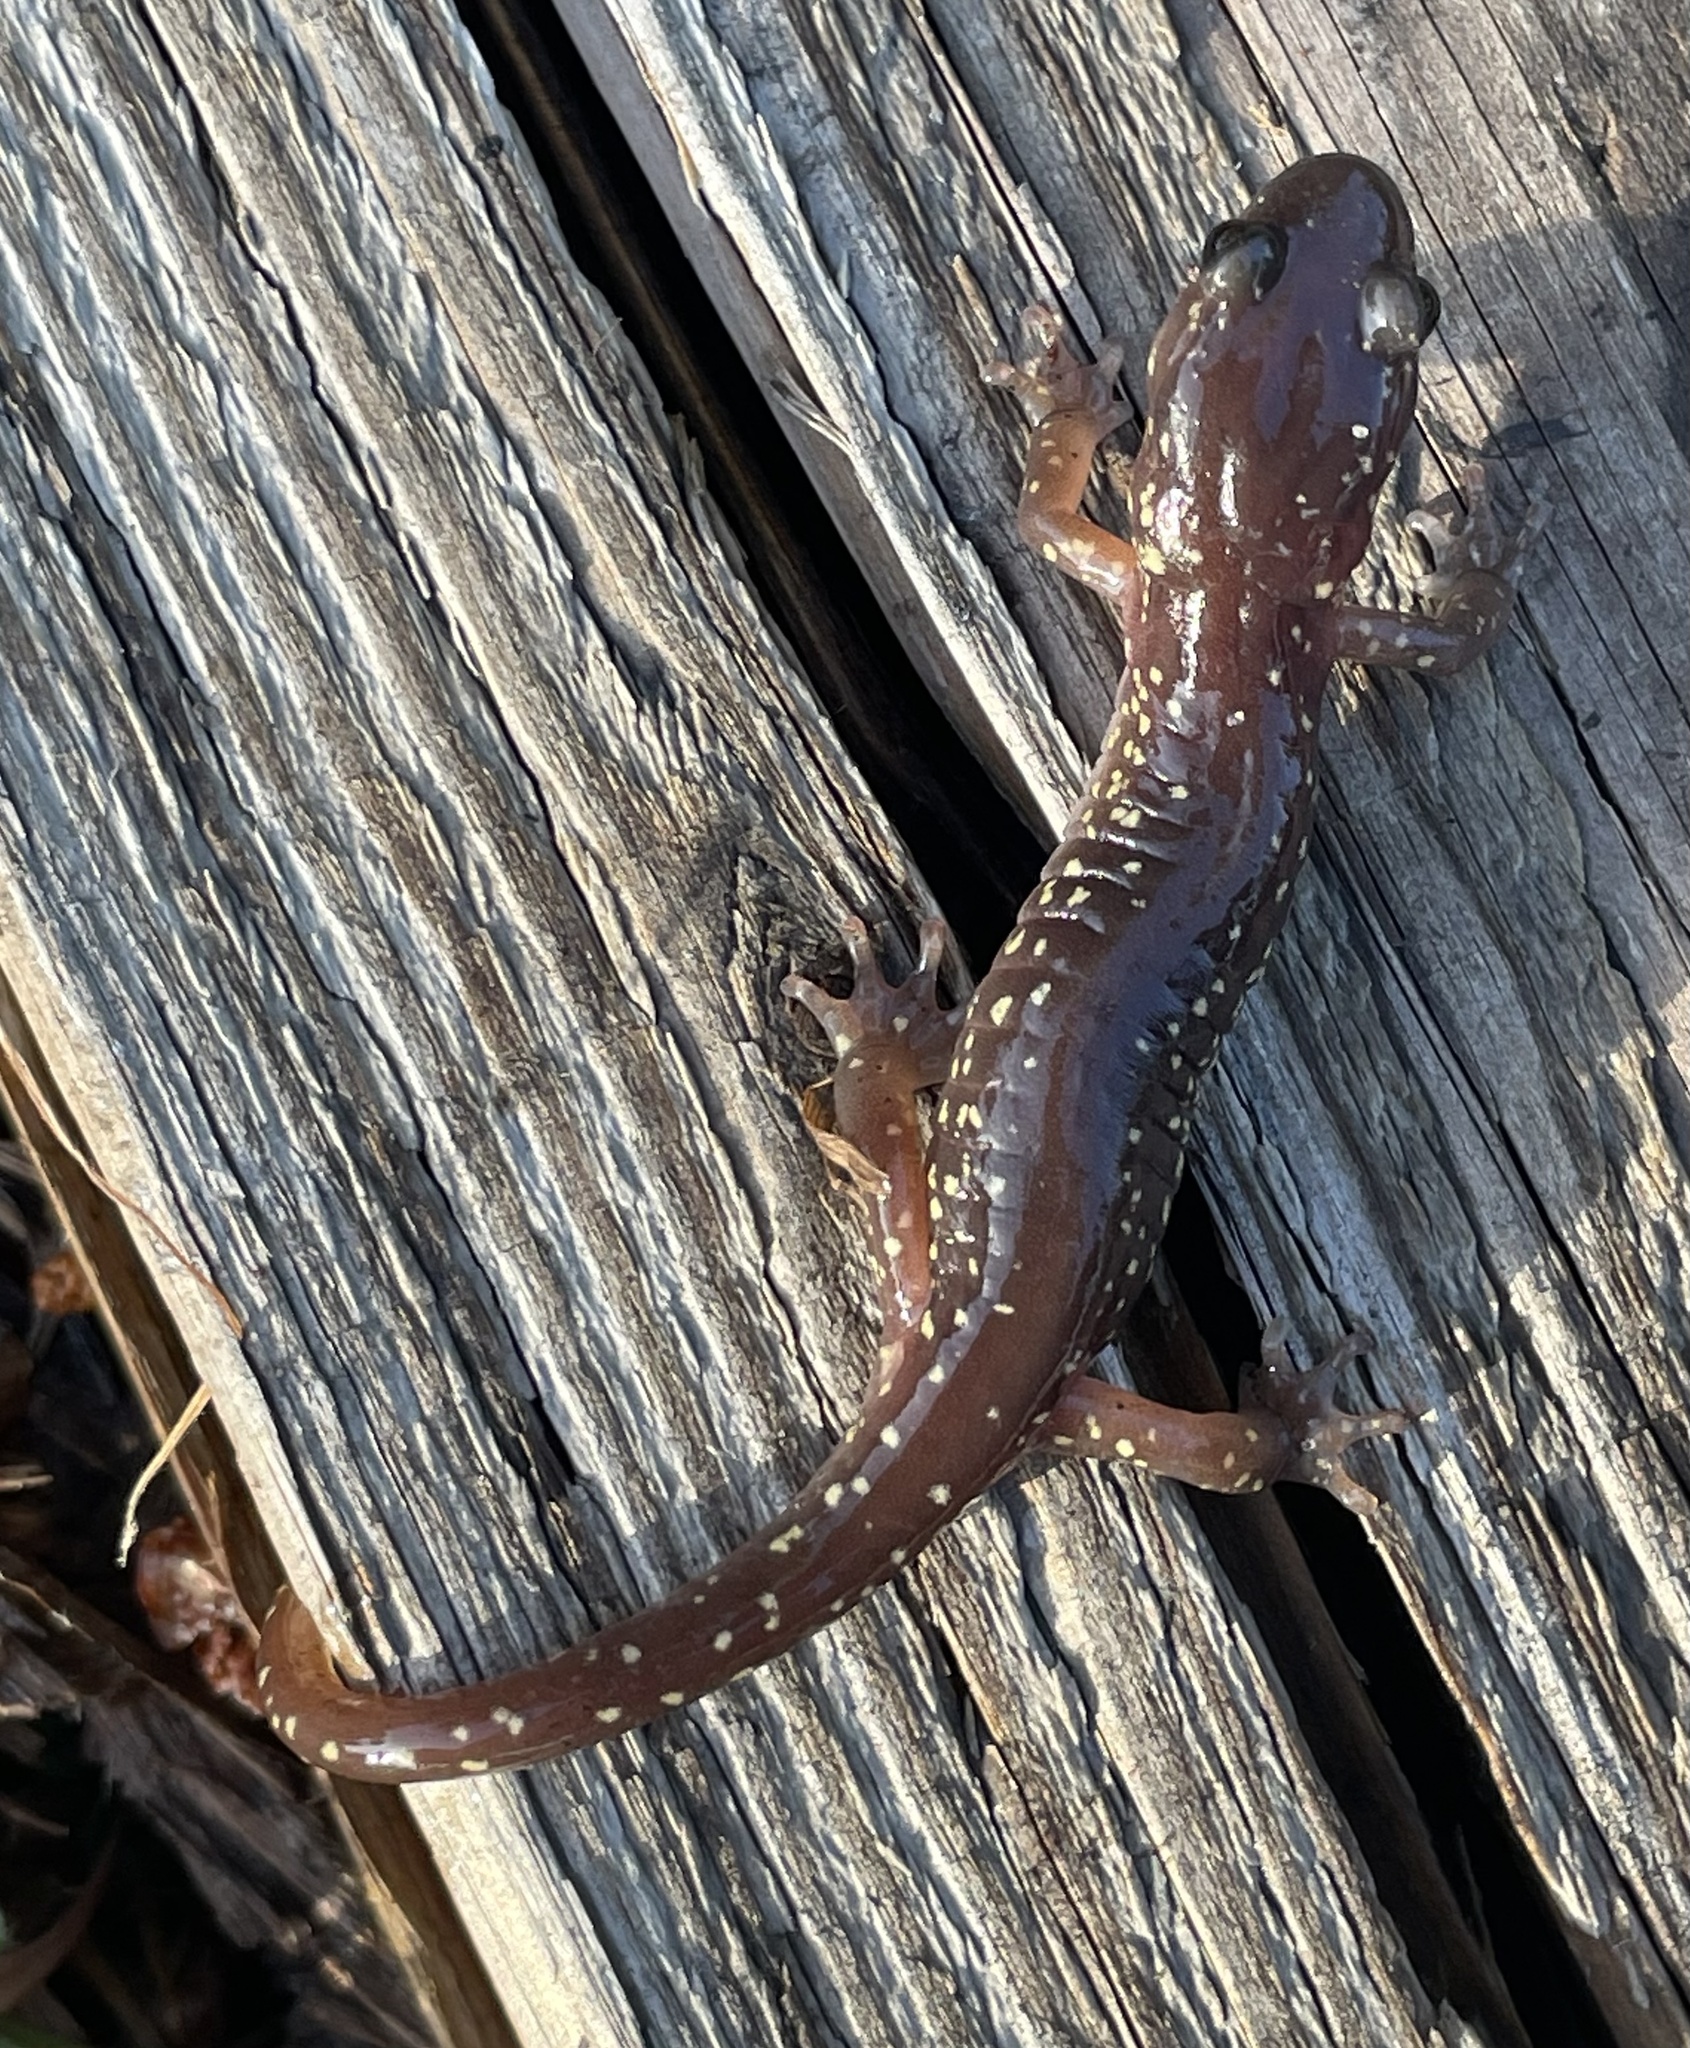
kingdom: Animalia
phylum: Chordata
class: Amphibia
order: Caudata
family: Plethodontidae
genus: Aneides
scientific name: Aneides lugubris
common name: Arboreal salamander
